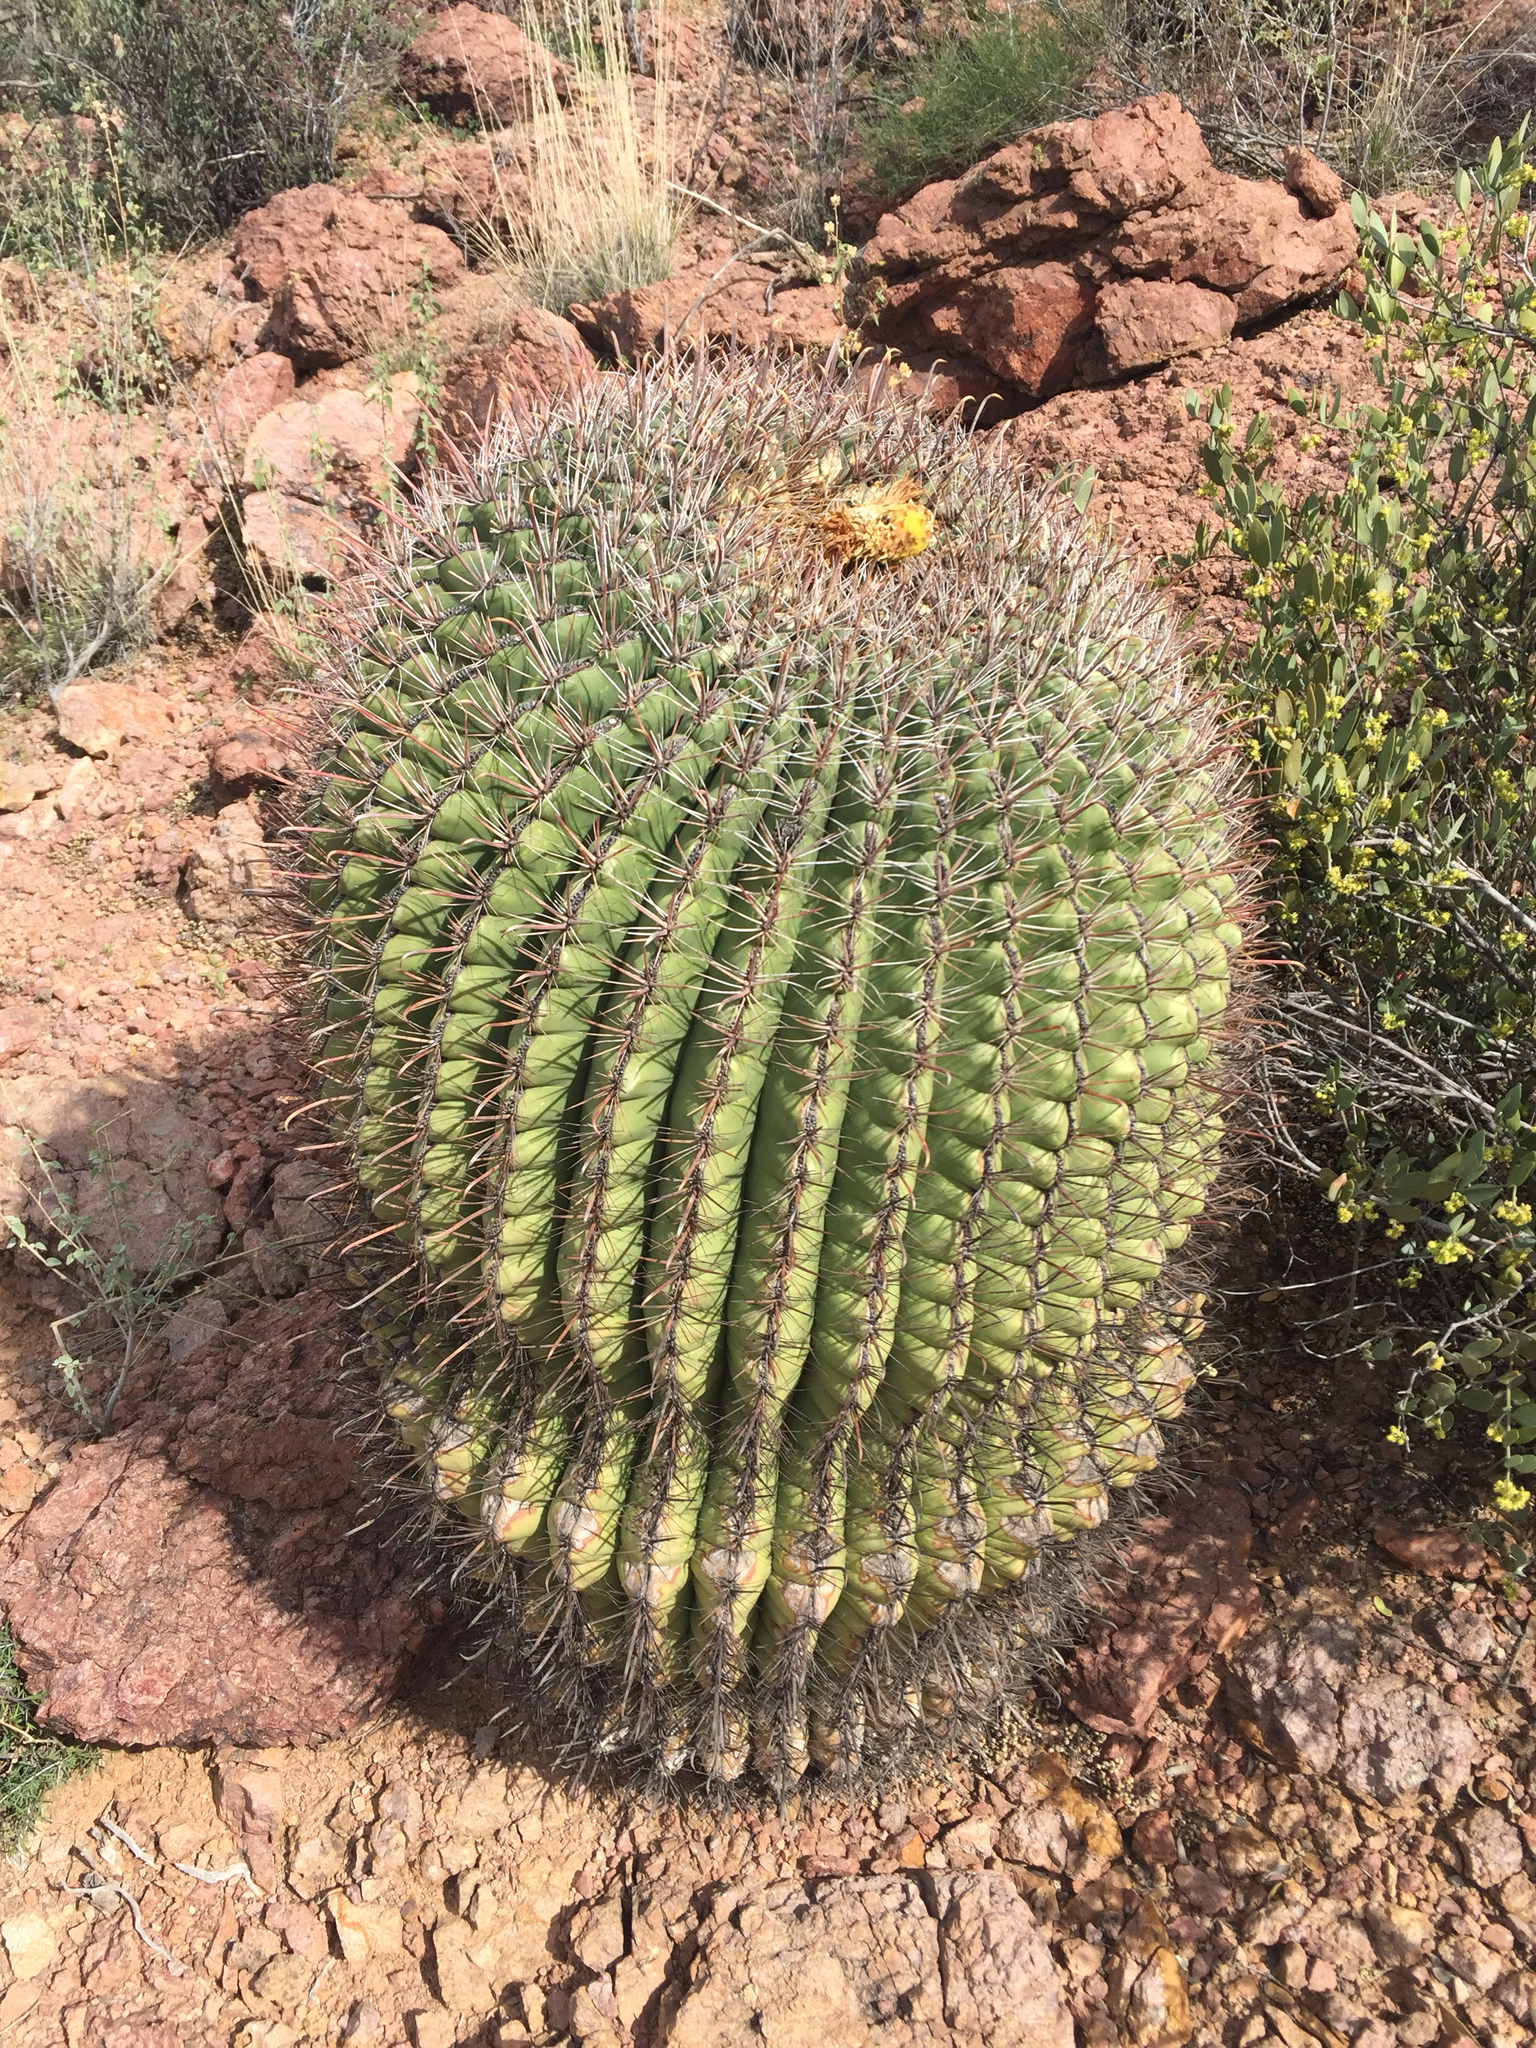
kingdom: Plantae
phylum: Tracheophyta
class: Magnoliopsida
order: Caryophyllales
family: Cactaceae
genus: Ferocactus
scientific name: Ferocactus wislizeni
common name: Candy barrel cactus
